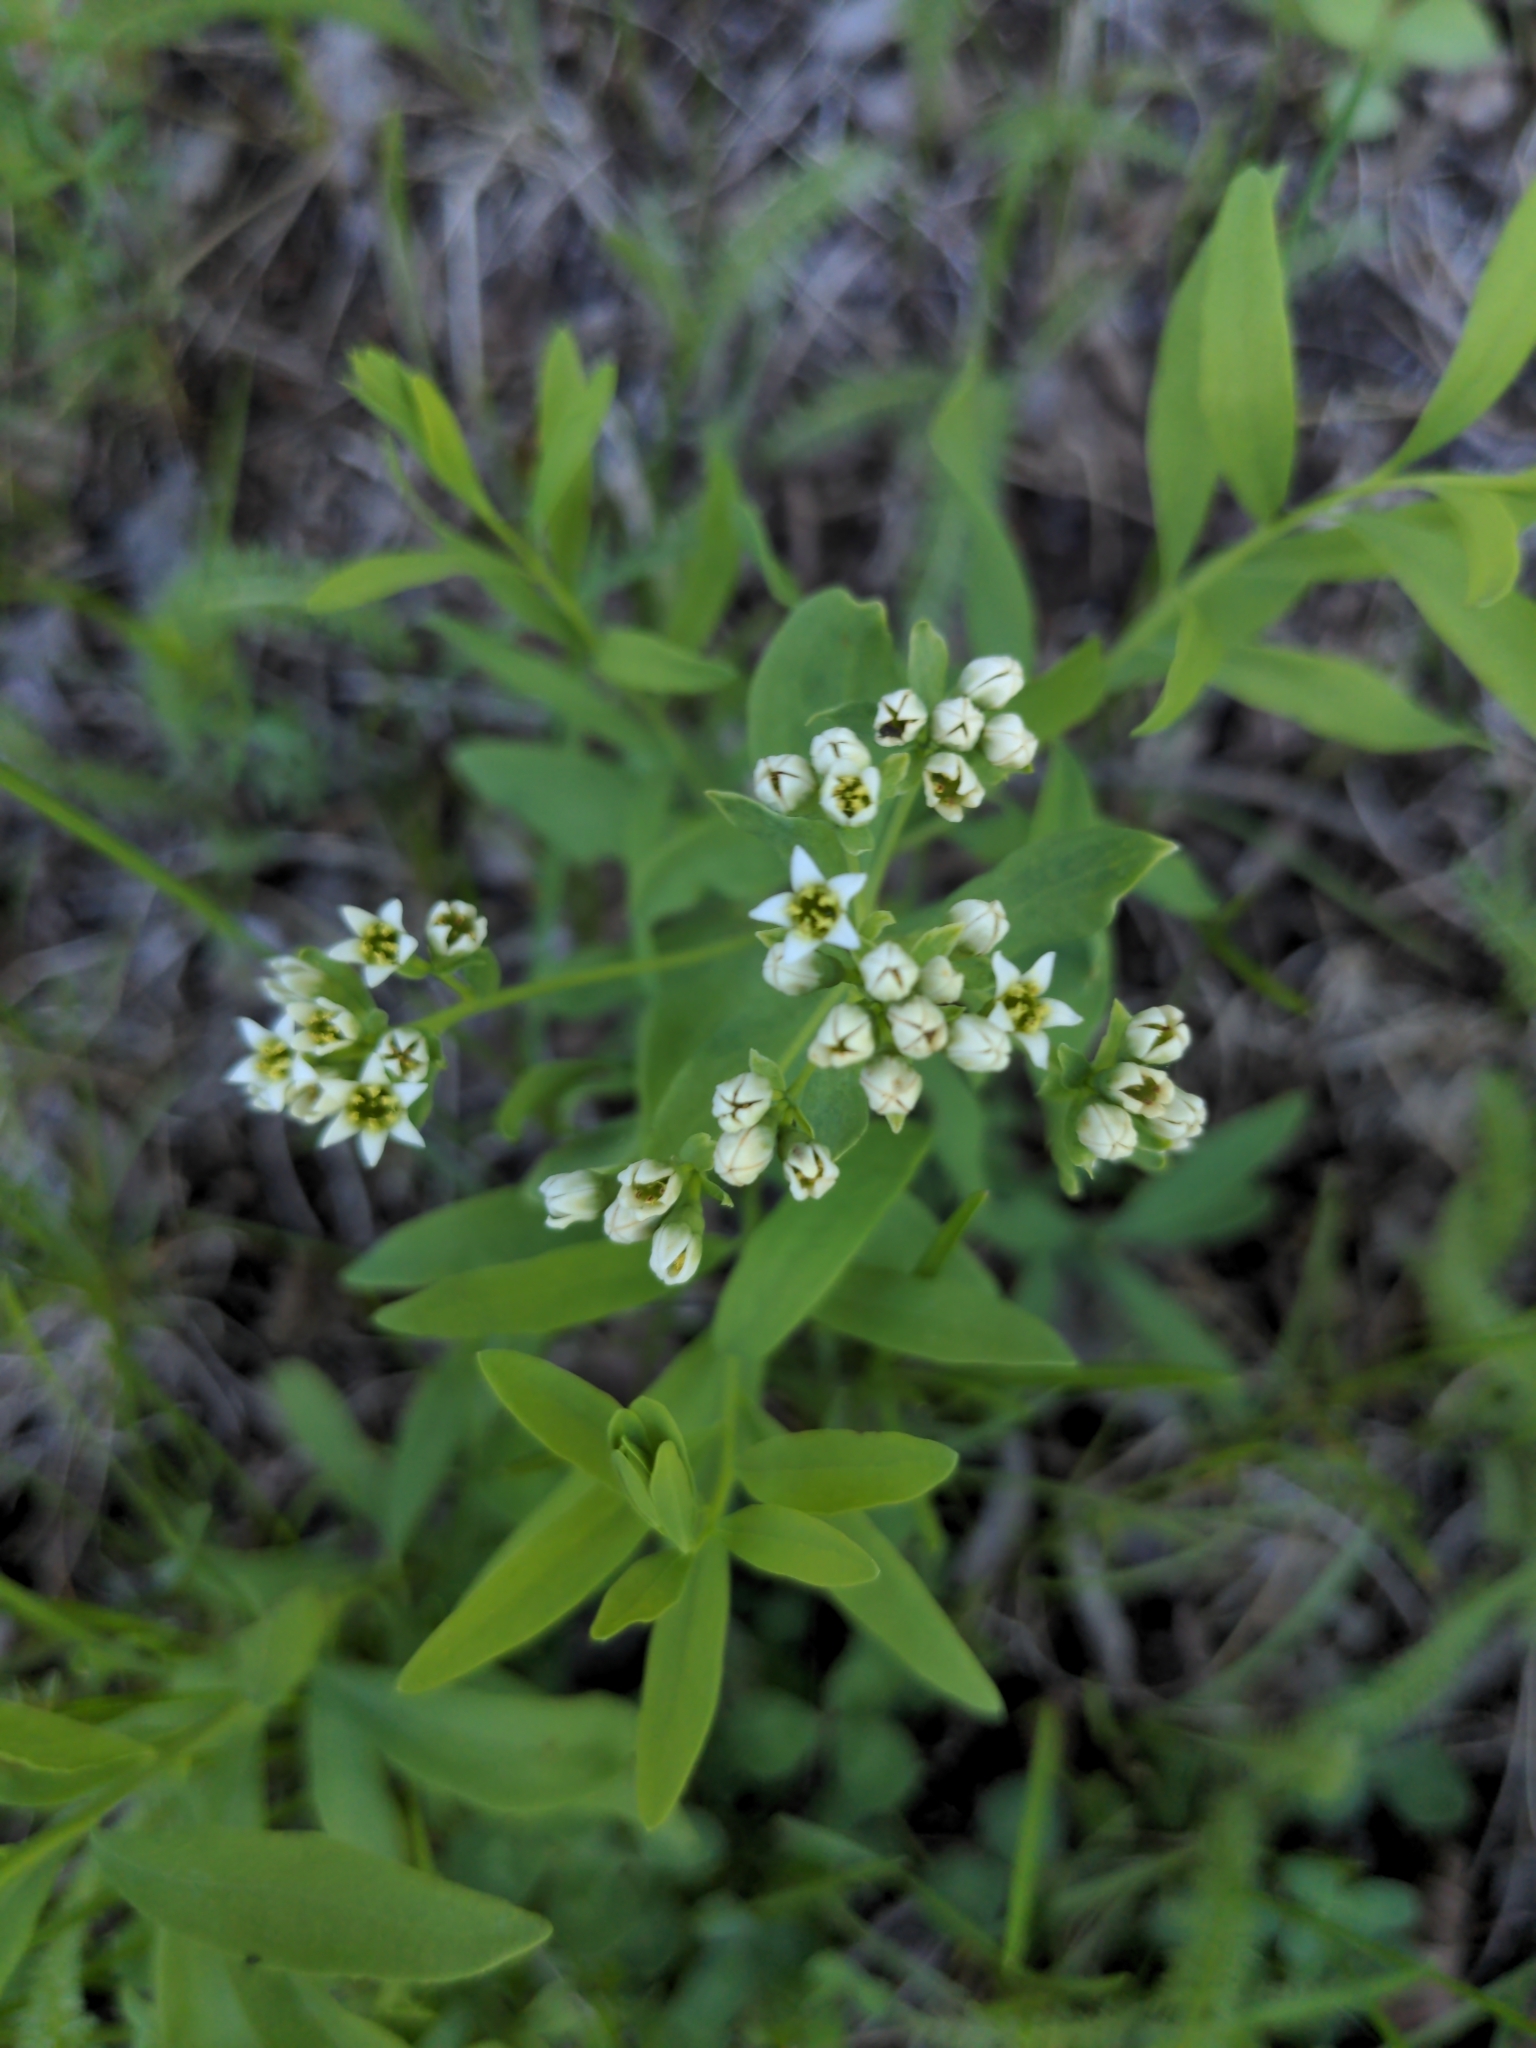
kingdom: Plantae
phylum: Tracheophyta
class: Magnoliopsida
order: Santalales
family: Comandraceae
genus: Comandra
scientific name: Comandra umbellata
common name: Bastard toadflax
